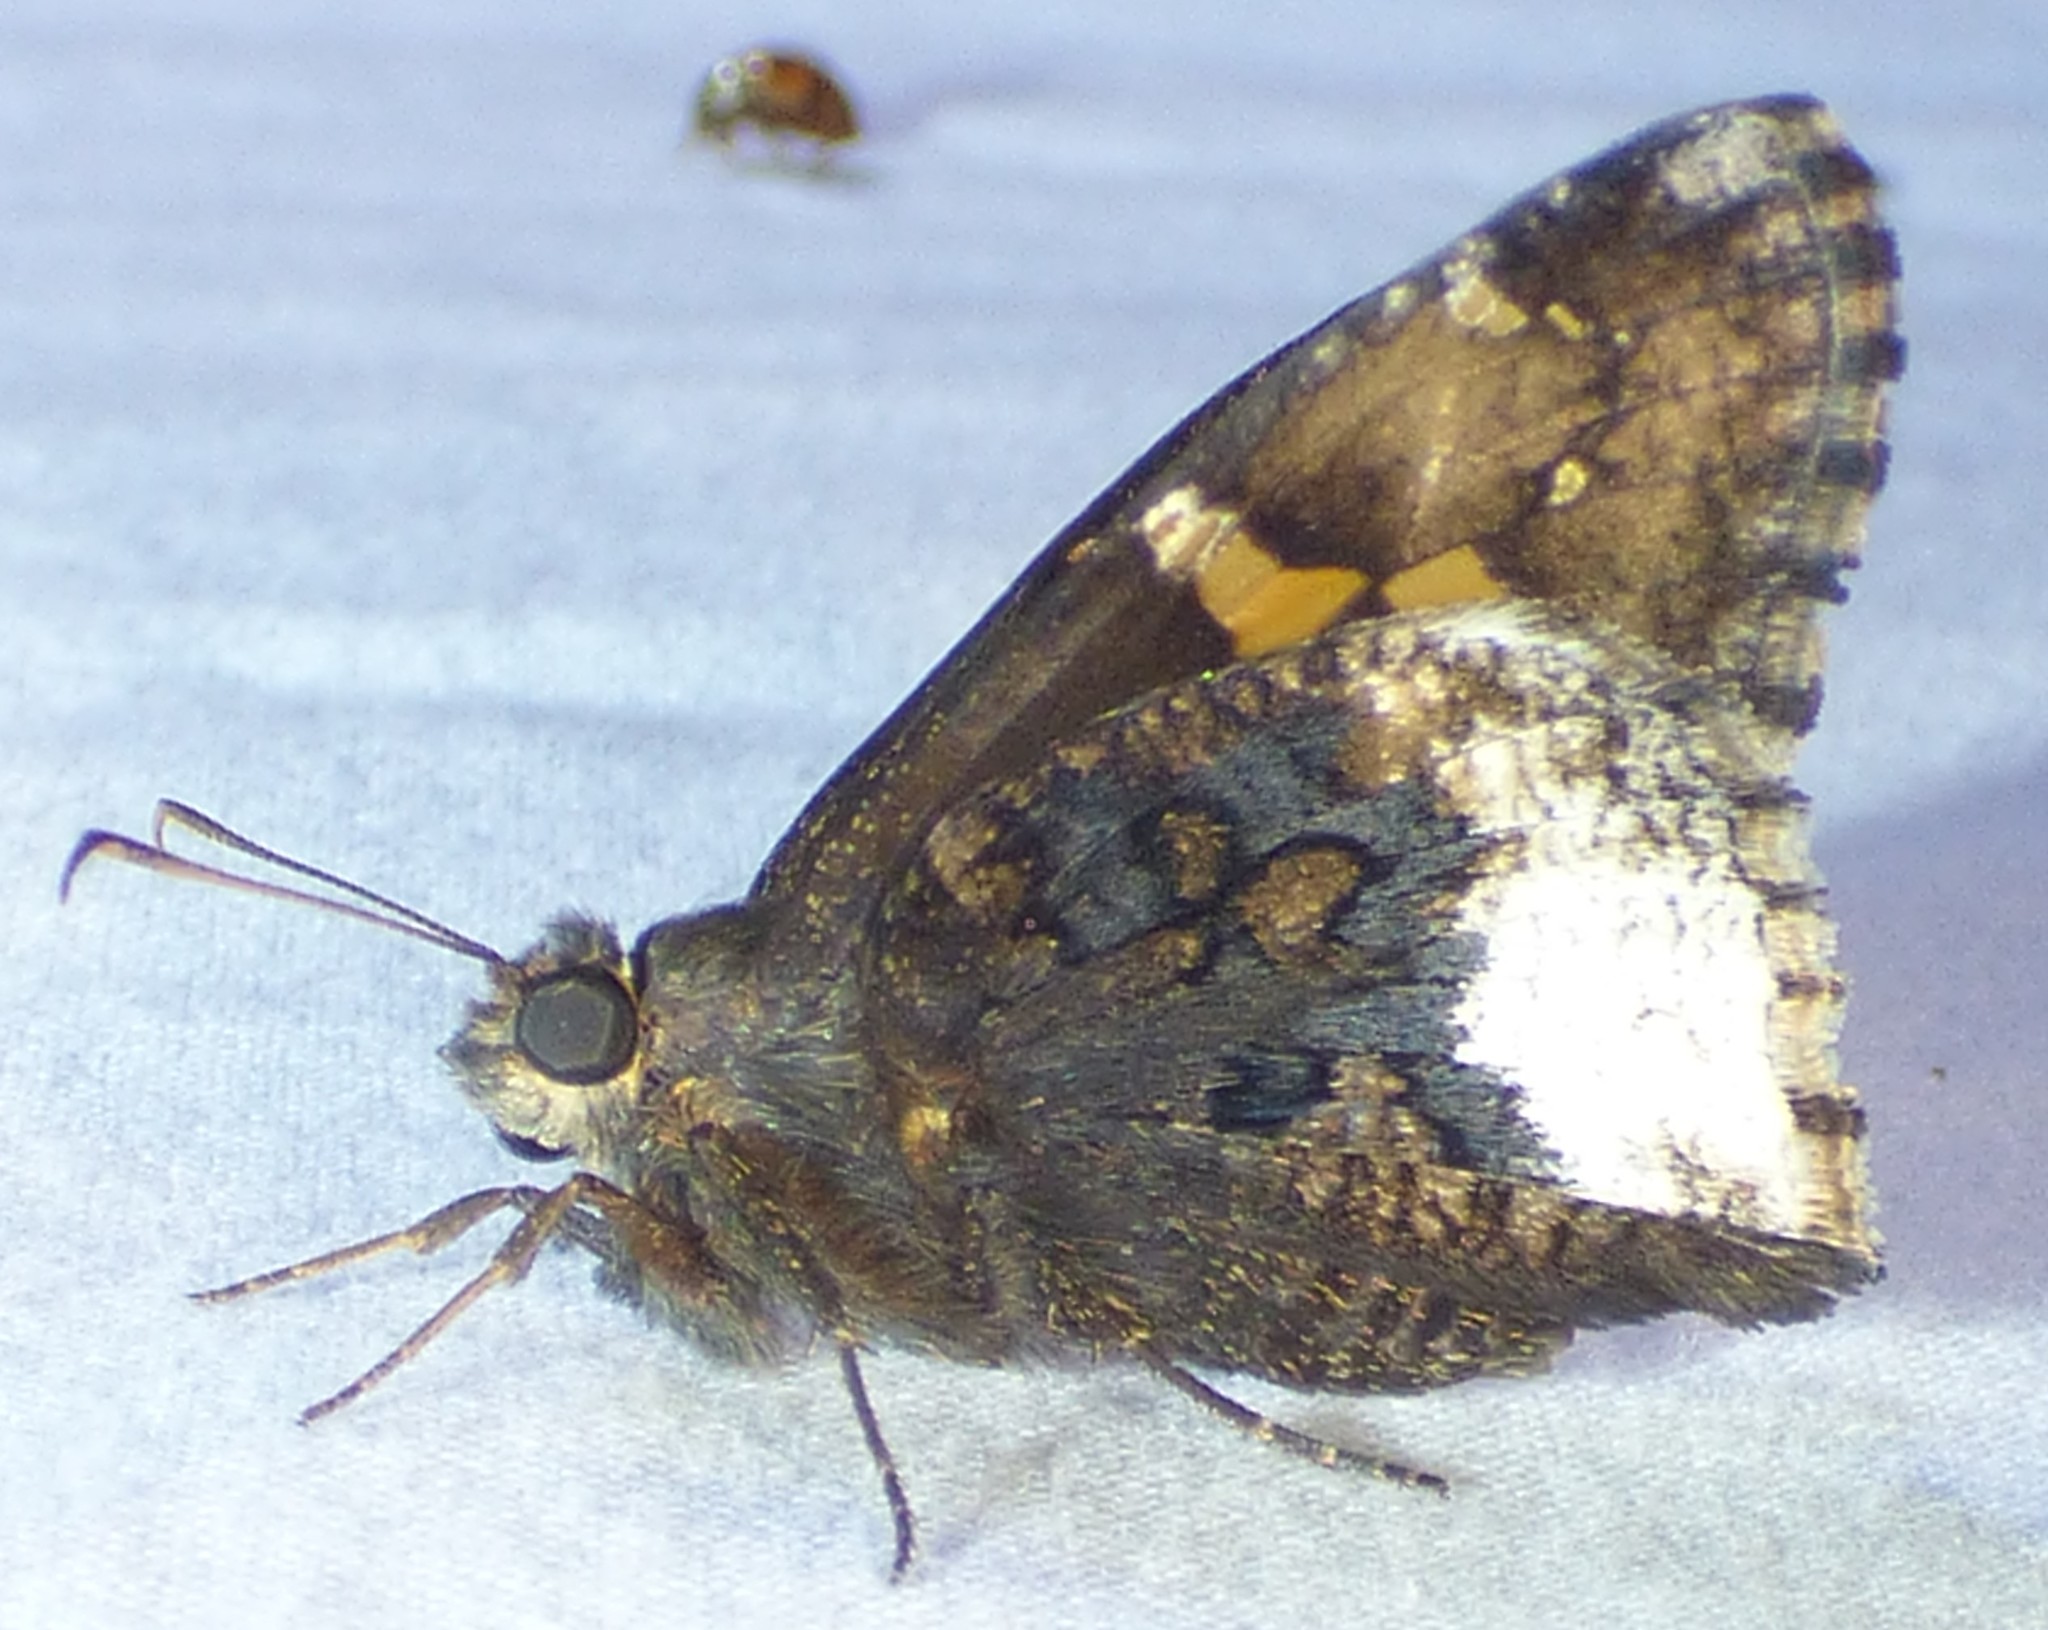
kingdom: Animalia
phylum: Arthropoda
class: Insecta
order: Lepidoptera
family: Hesperiidae
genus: Thorybes
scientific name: Thorybes lyciades
